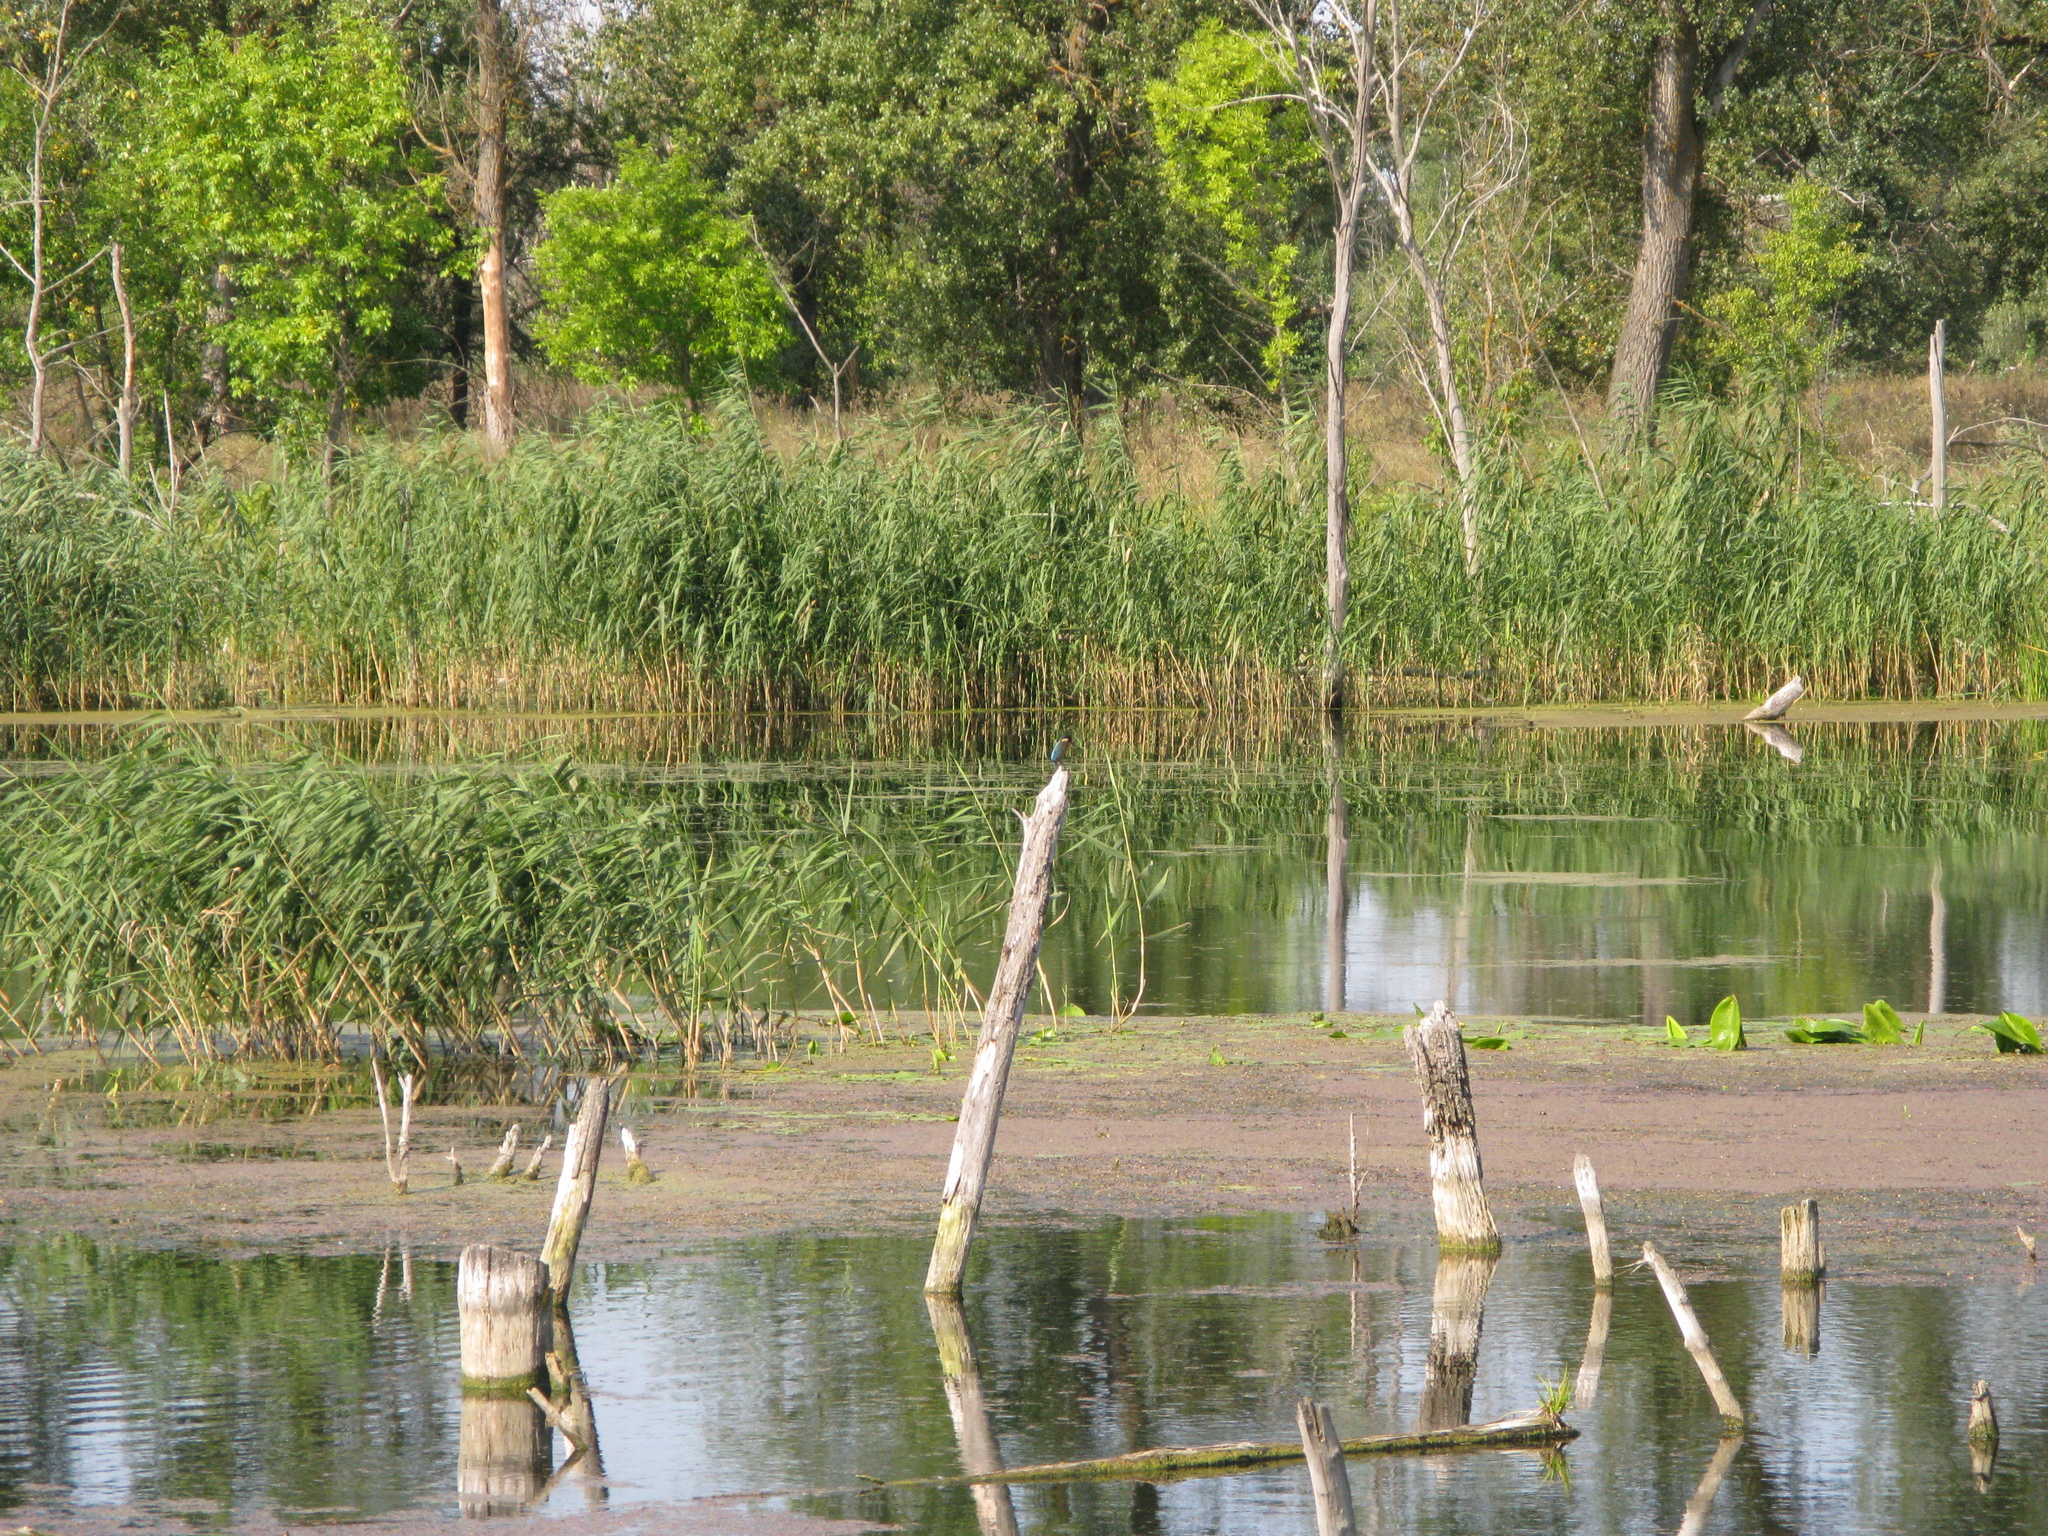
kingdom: Animalia
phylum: Chordata
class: Aves
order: Coraciiformes
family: Alcedinidae
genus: Alcedo
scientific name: Alcedo atthis
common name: Common kingfisher
